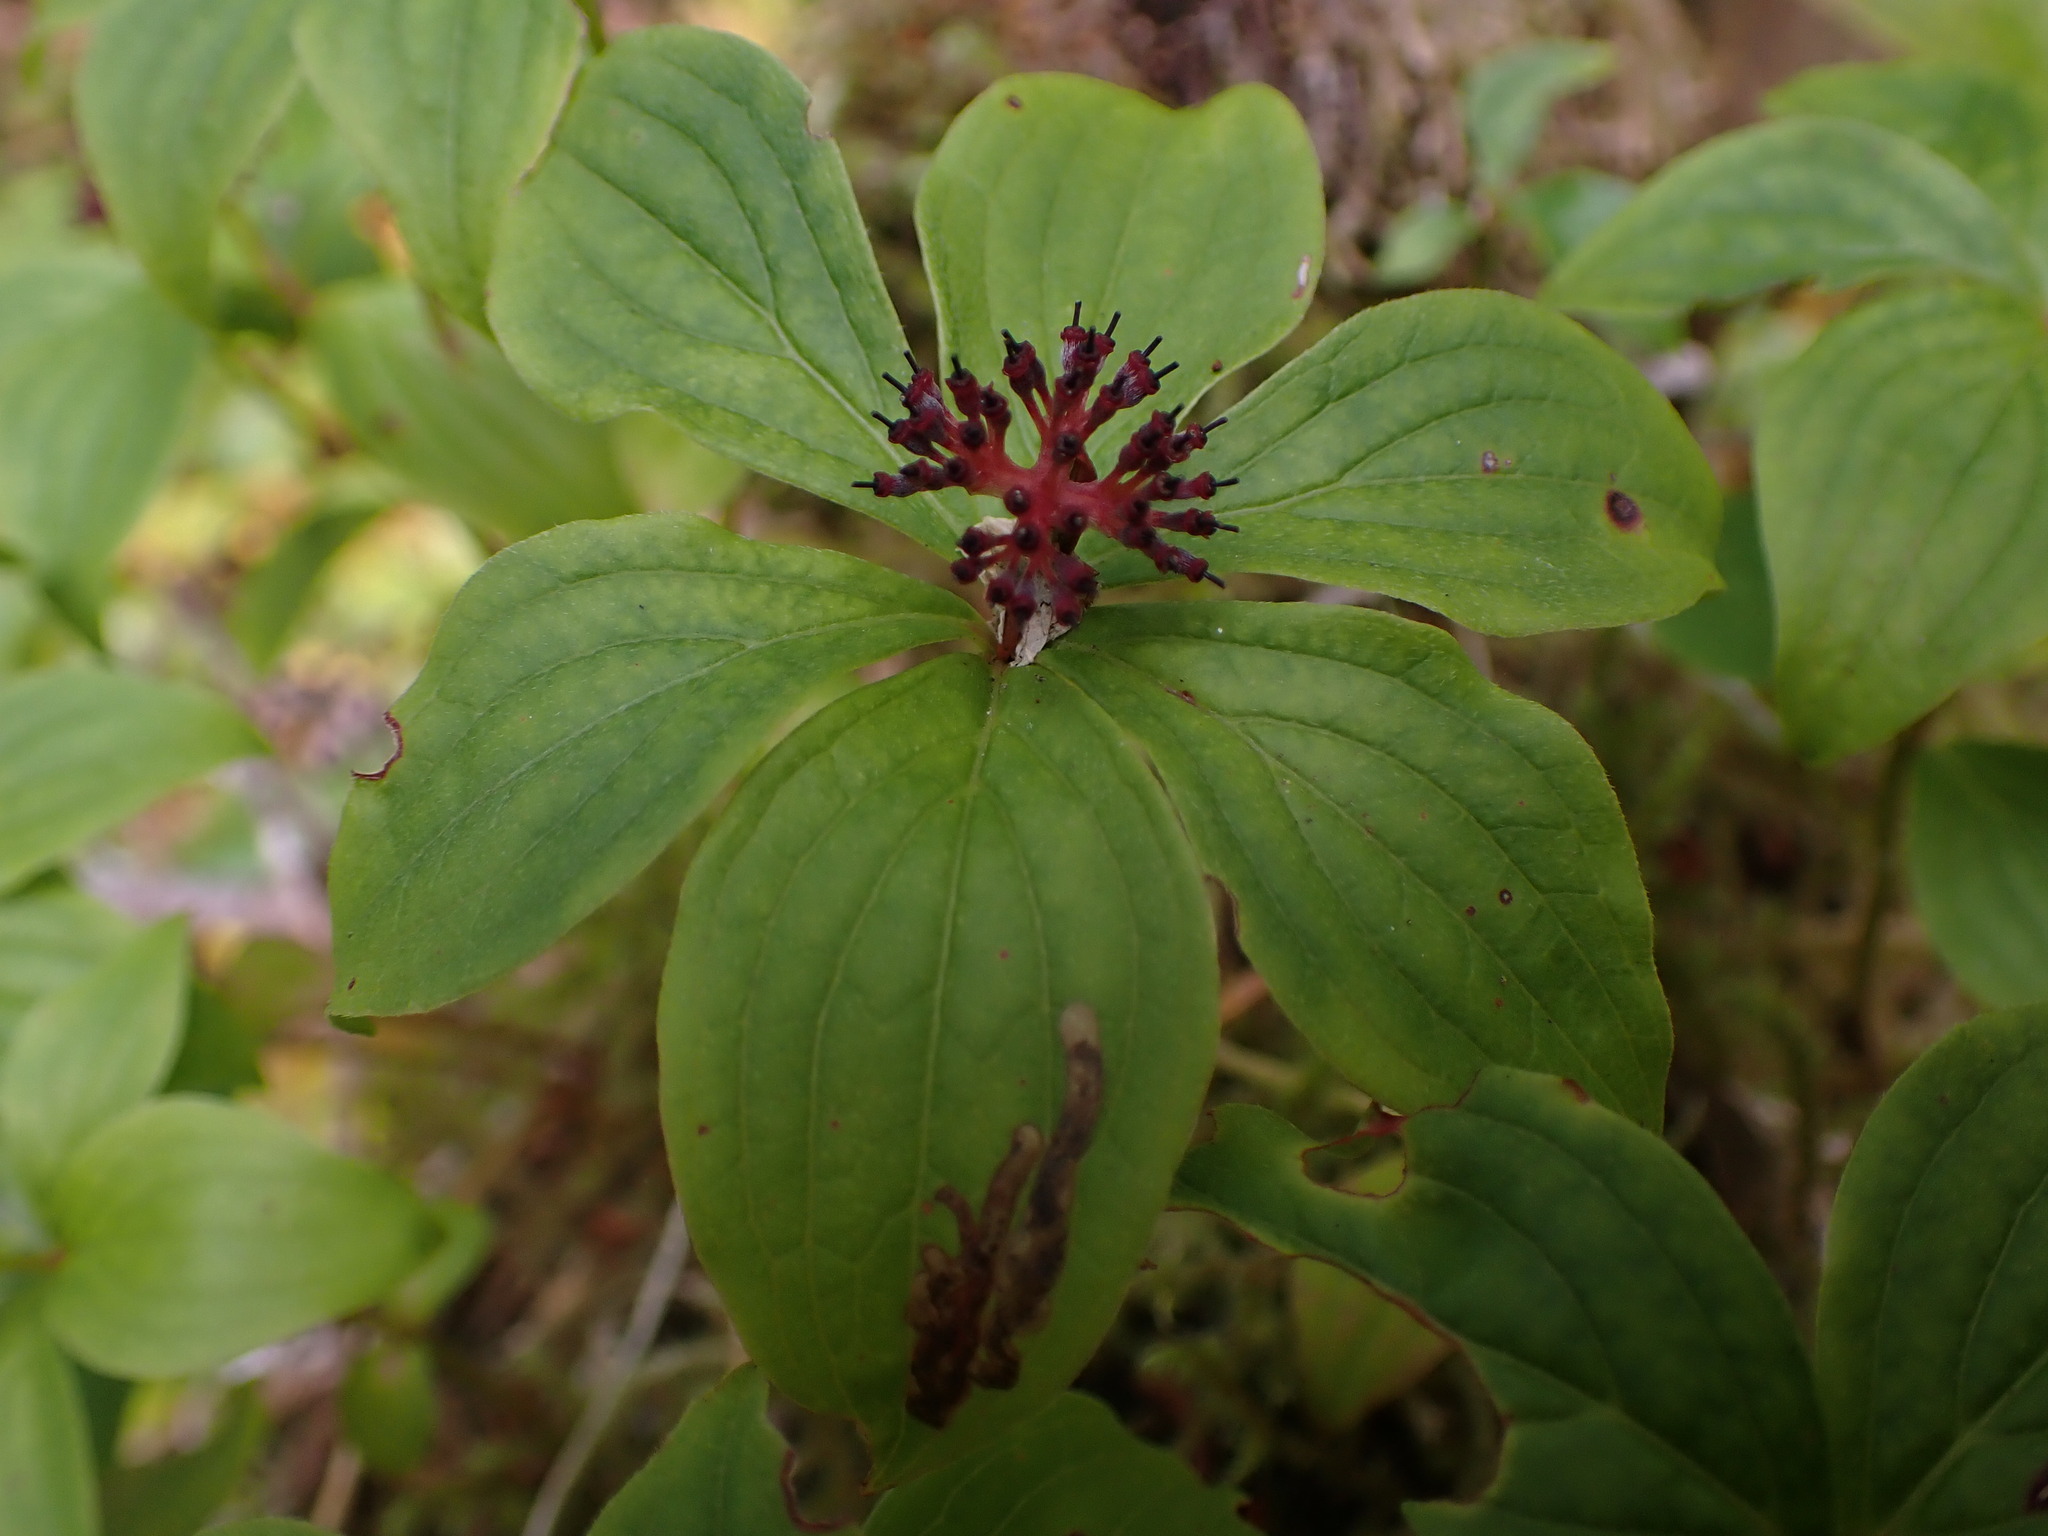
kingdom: Plantae
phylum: Tracheophyta
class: Magnoliopsida
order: Cornales
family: Cornaceae
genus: Cornus
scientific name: Cornus unalaschkensis
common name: Alaska bunchberry
